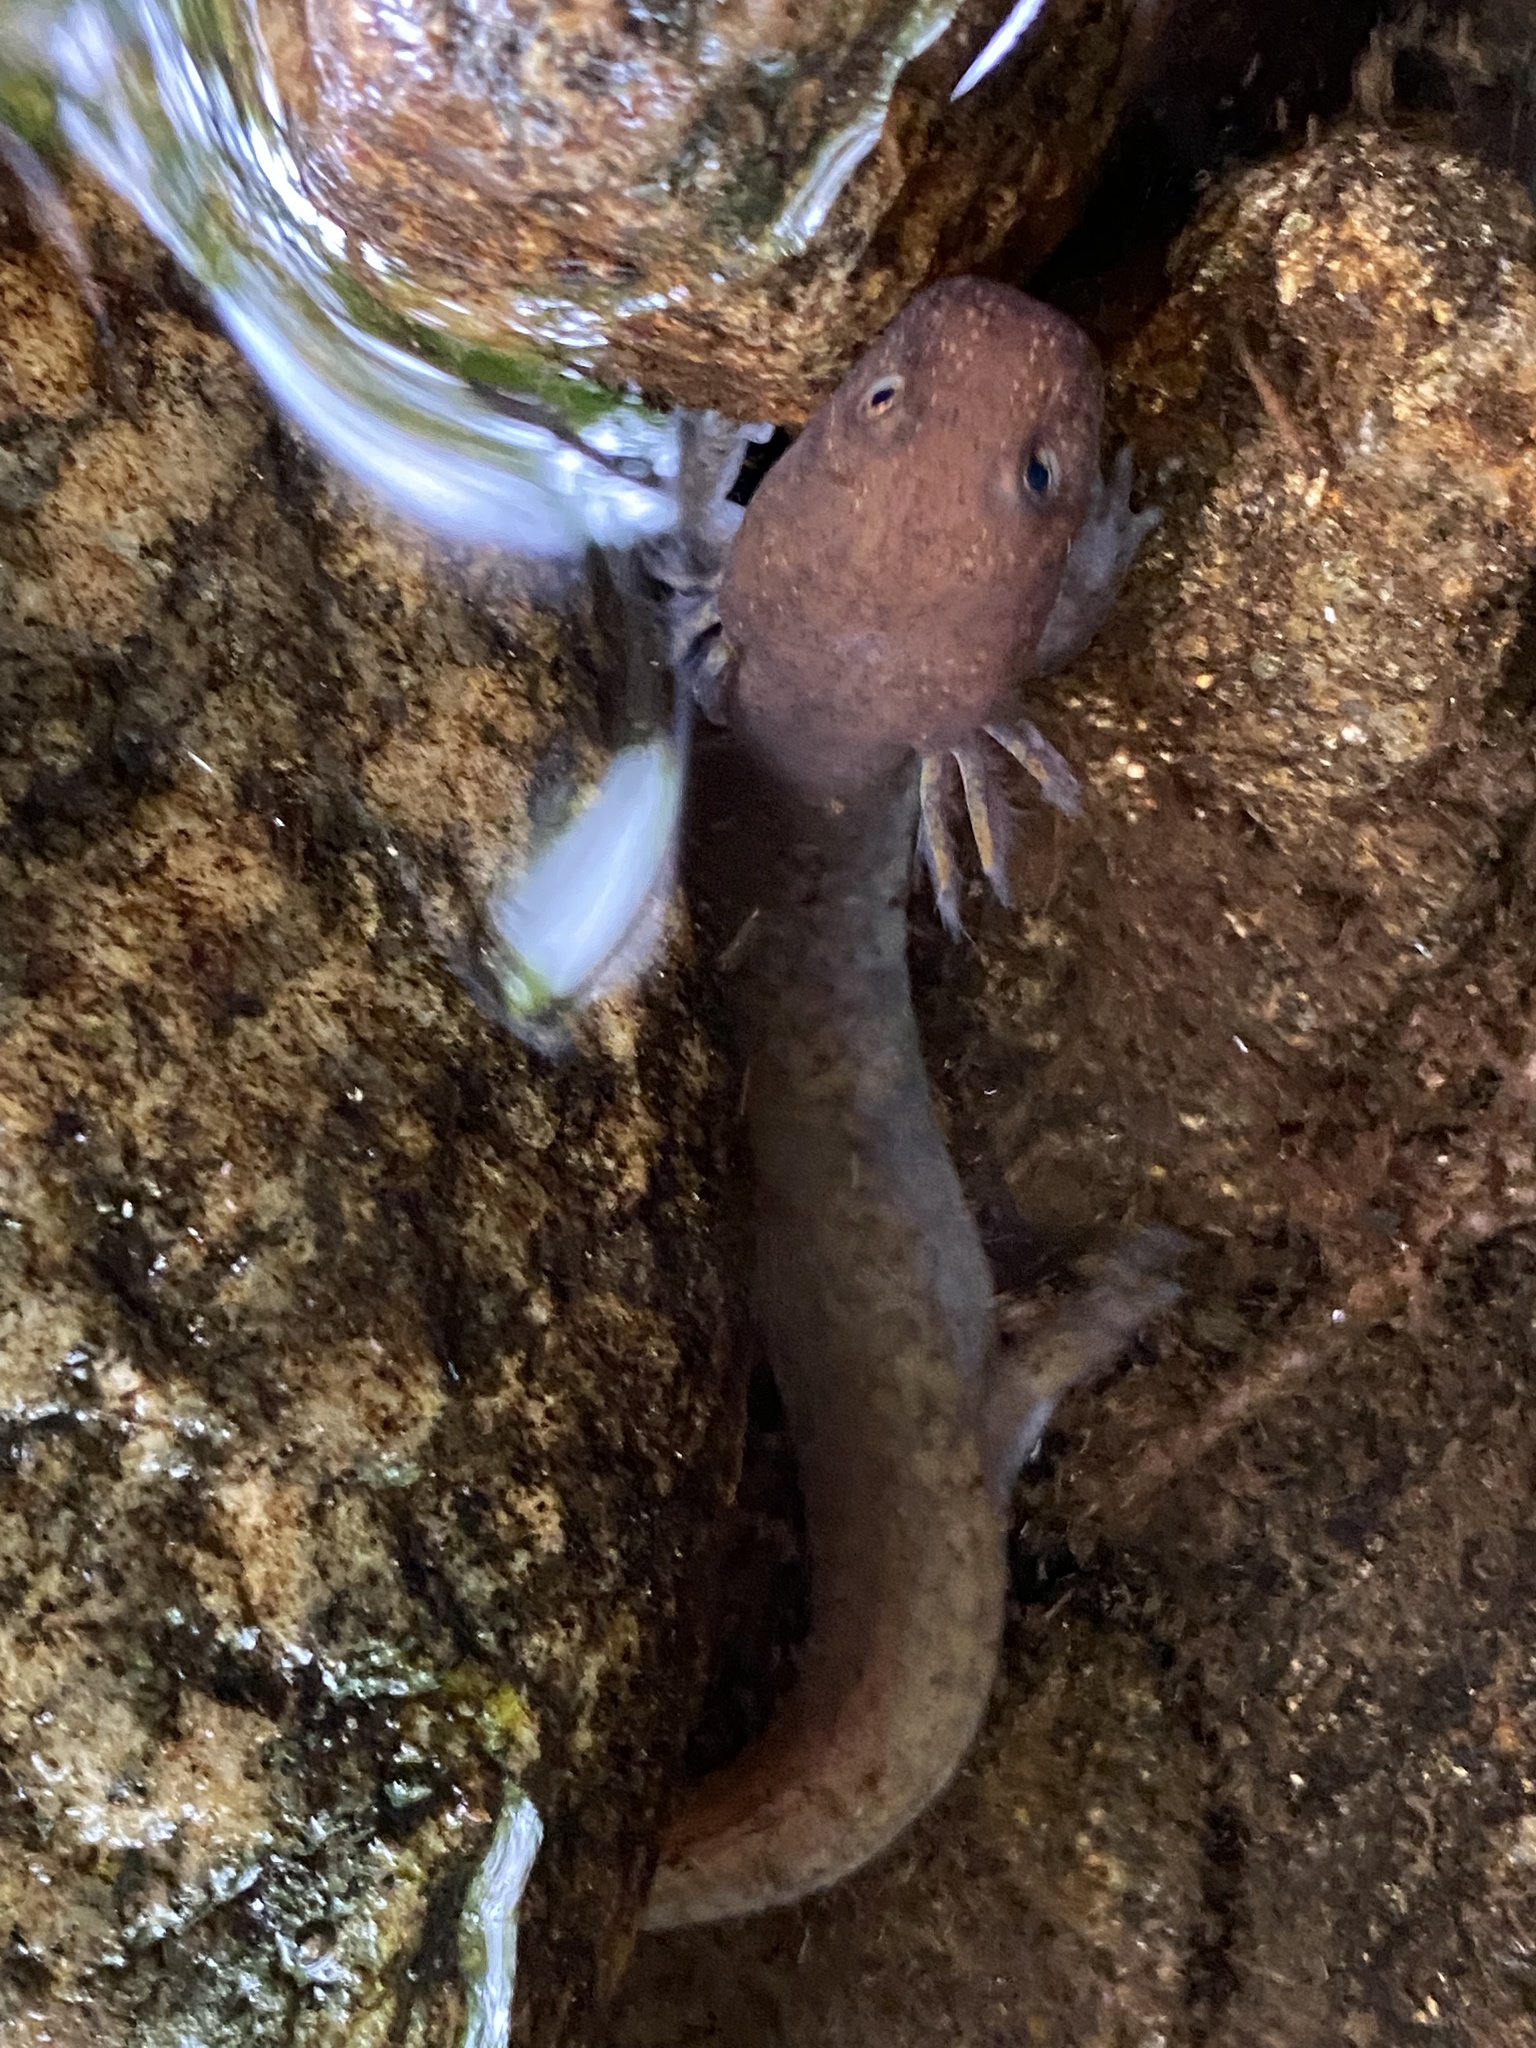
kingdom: Animalia
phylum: Chordata
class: Amphibia
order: Caudata
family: Plethodontidae
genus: Gyrinophilus
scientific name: Gyrinophilus porphyriticus
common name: Spring salamander
